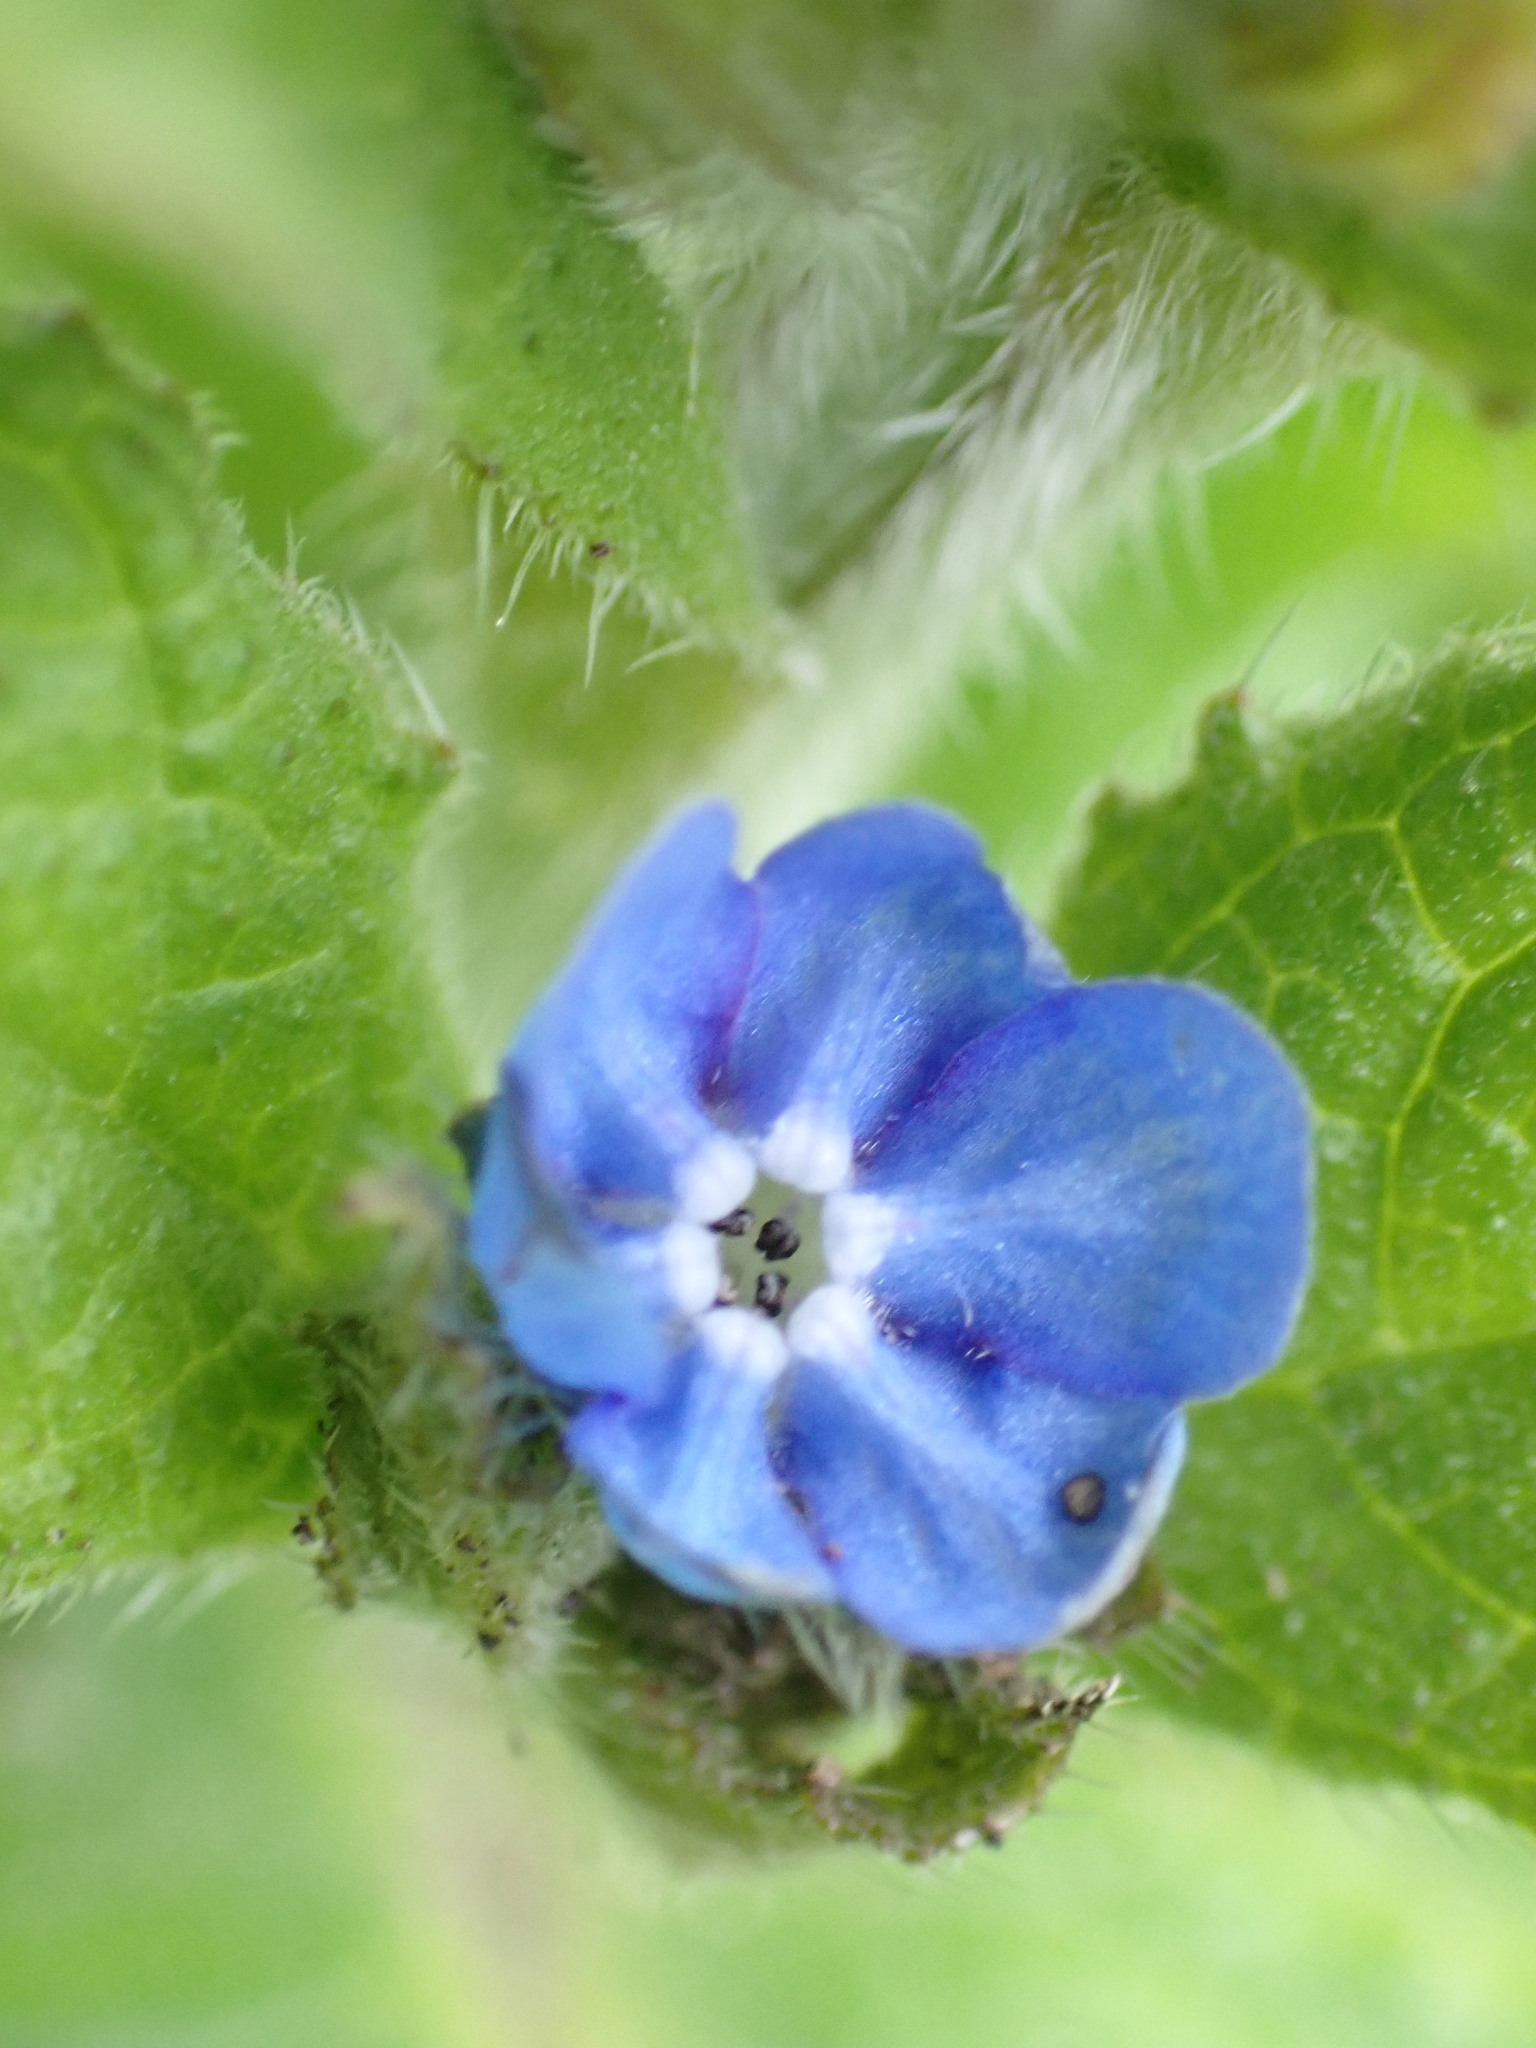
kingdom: Plantae
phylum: Tracheophyta
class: Magnoliopsida
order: Boraginales
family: Boraginaceae
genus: Pentaglottis
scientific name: Pentaglottis sempervirens
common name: Green alkanet
